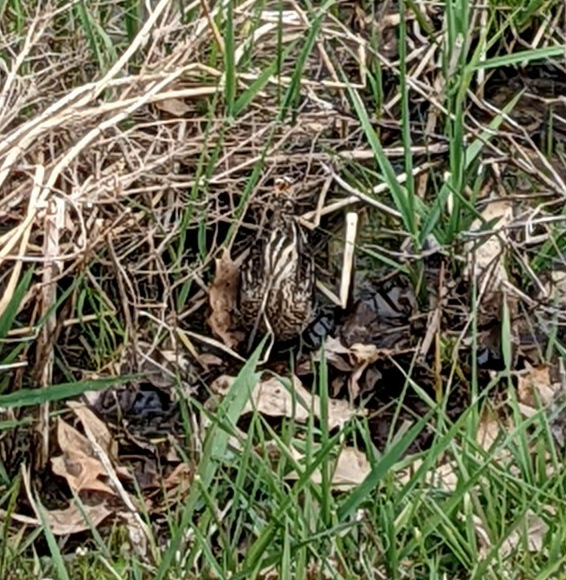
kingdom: Animalia
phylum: Chordata
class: Aves
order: Charadriiformes
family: Scolopacidae
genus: Gallinago
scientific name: Gallinago delicata
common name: Wilson's snipe
